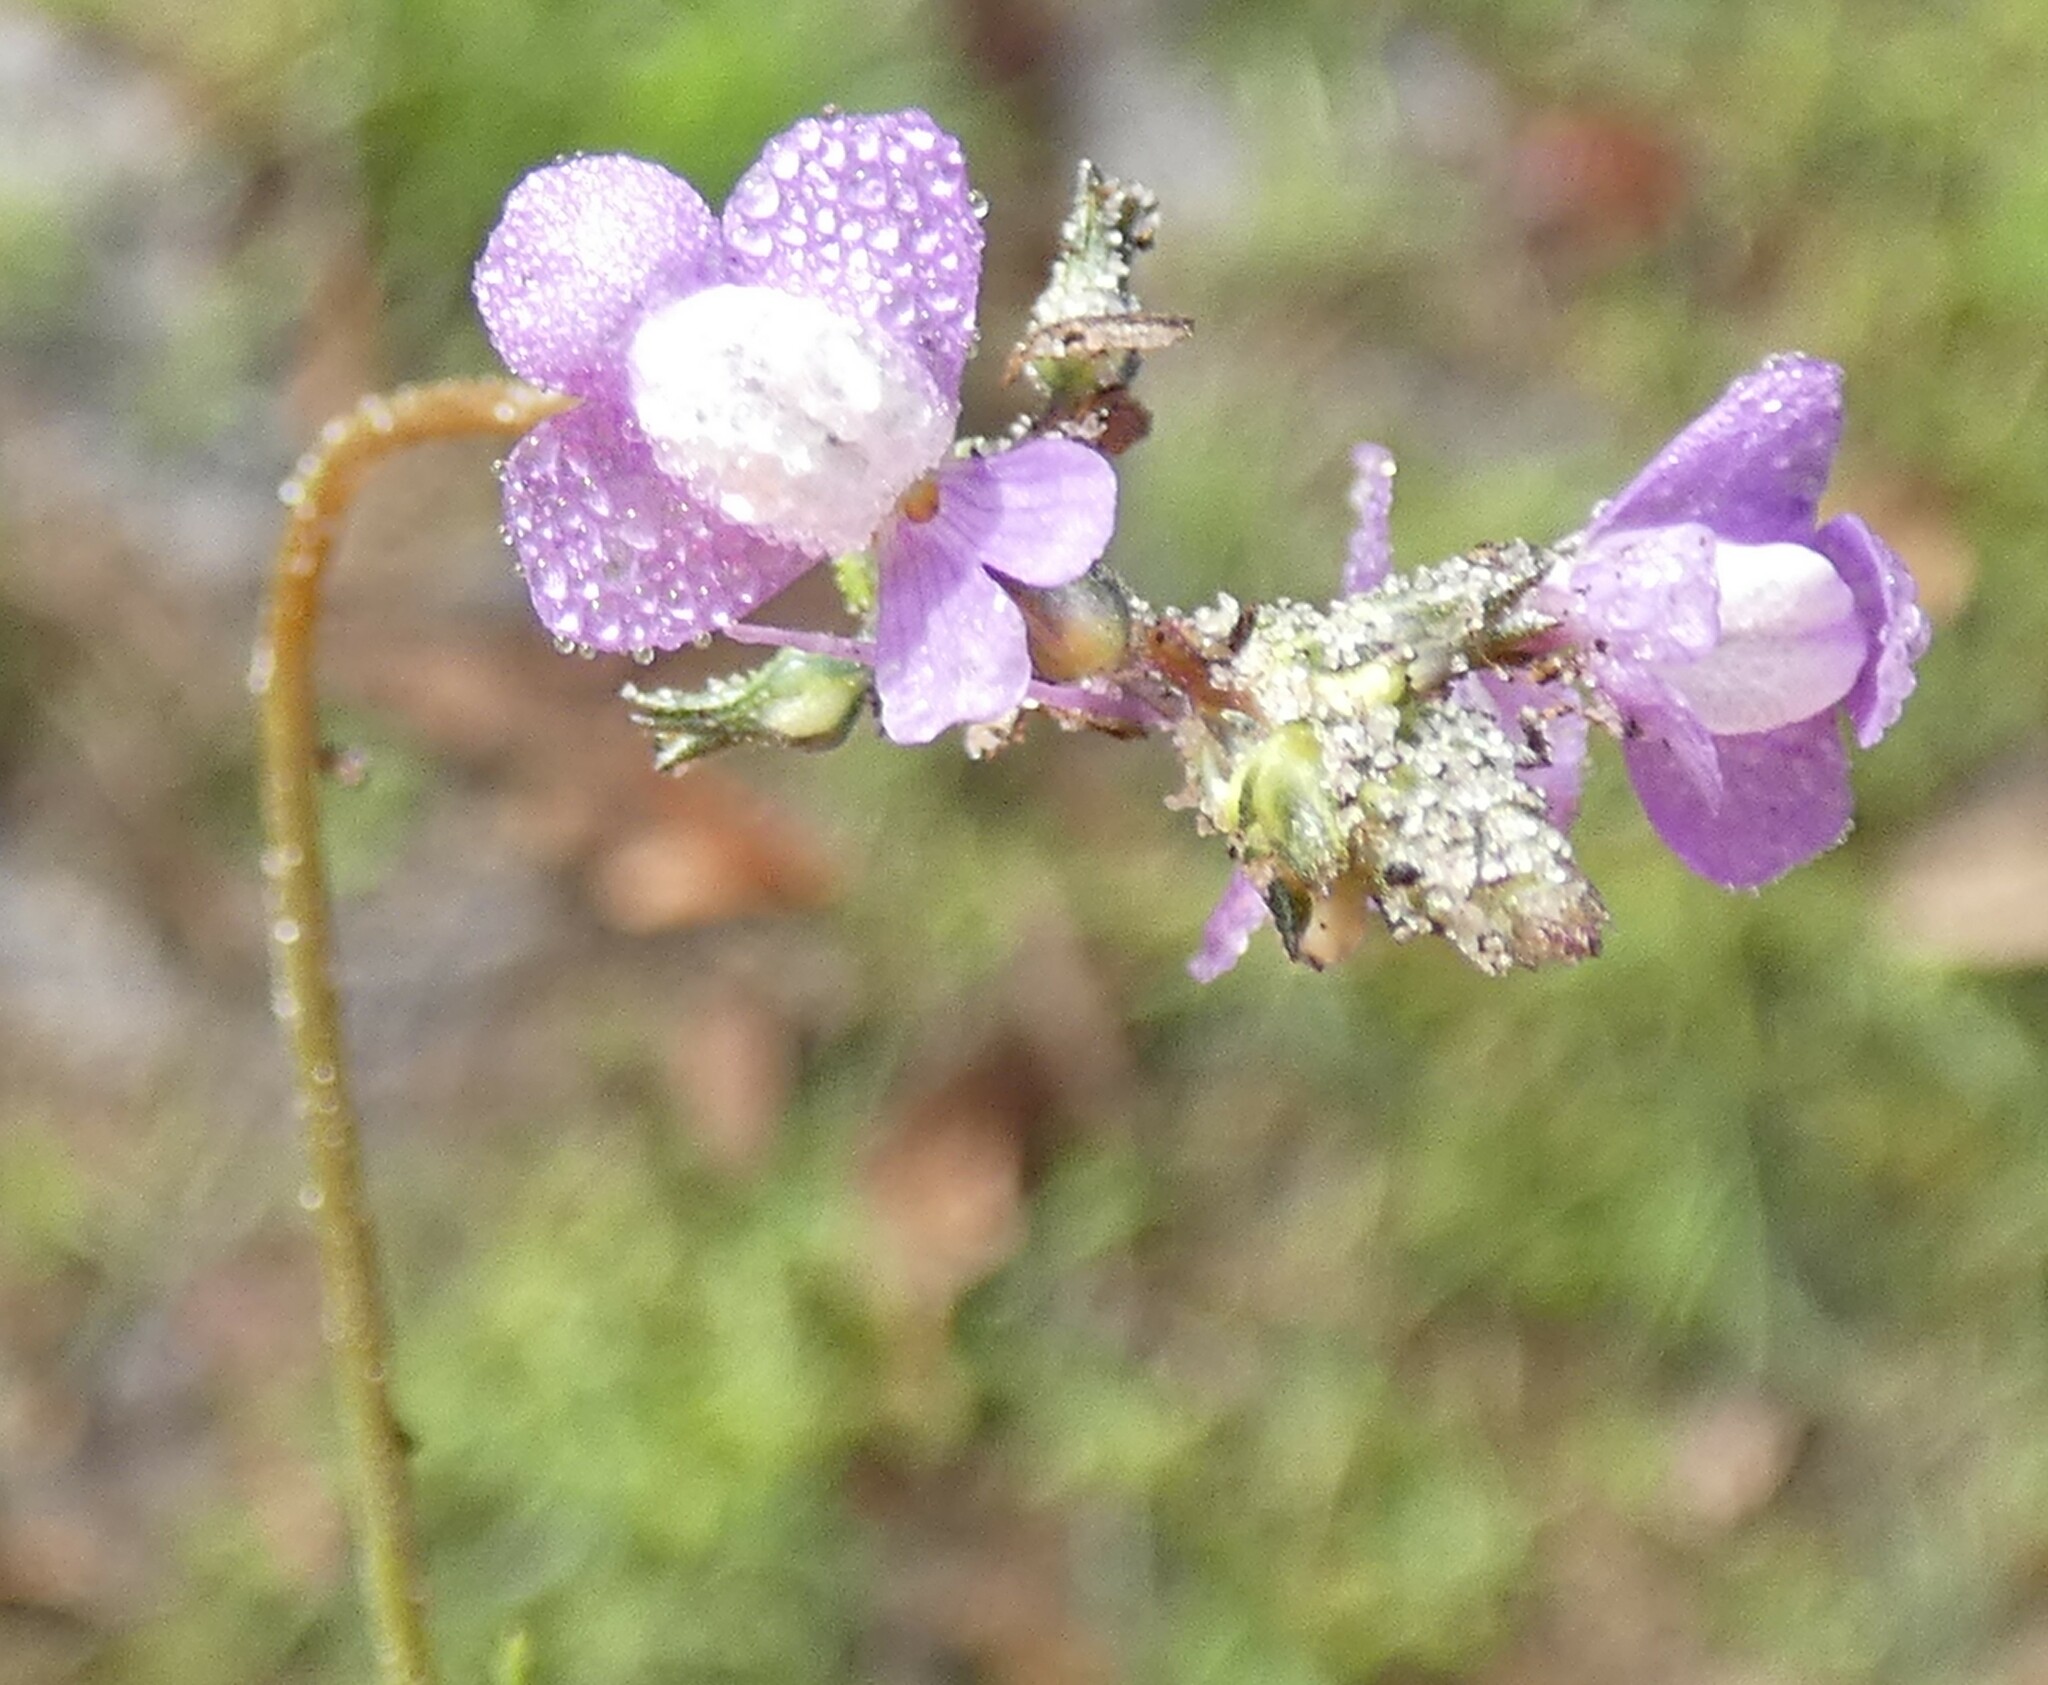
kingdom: Plantae
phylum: Tracheophyta
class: Magnoliopsida
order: Lamiales
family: Plantaginaceae
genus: Nuttallanthus
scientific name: Nuttallanthus canadensis
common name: Blue toadflax
